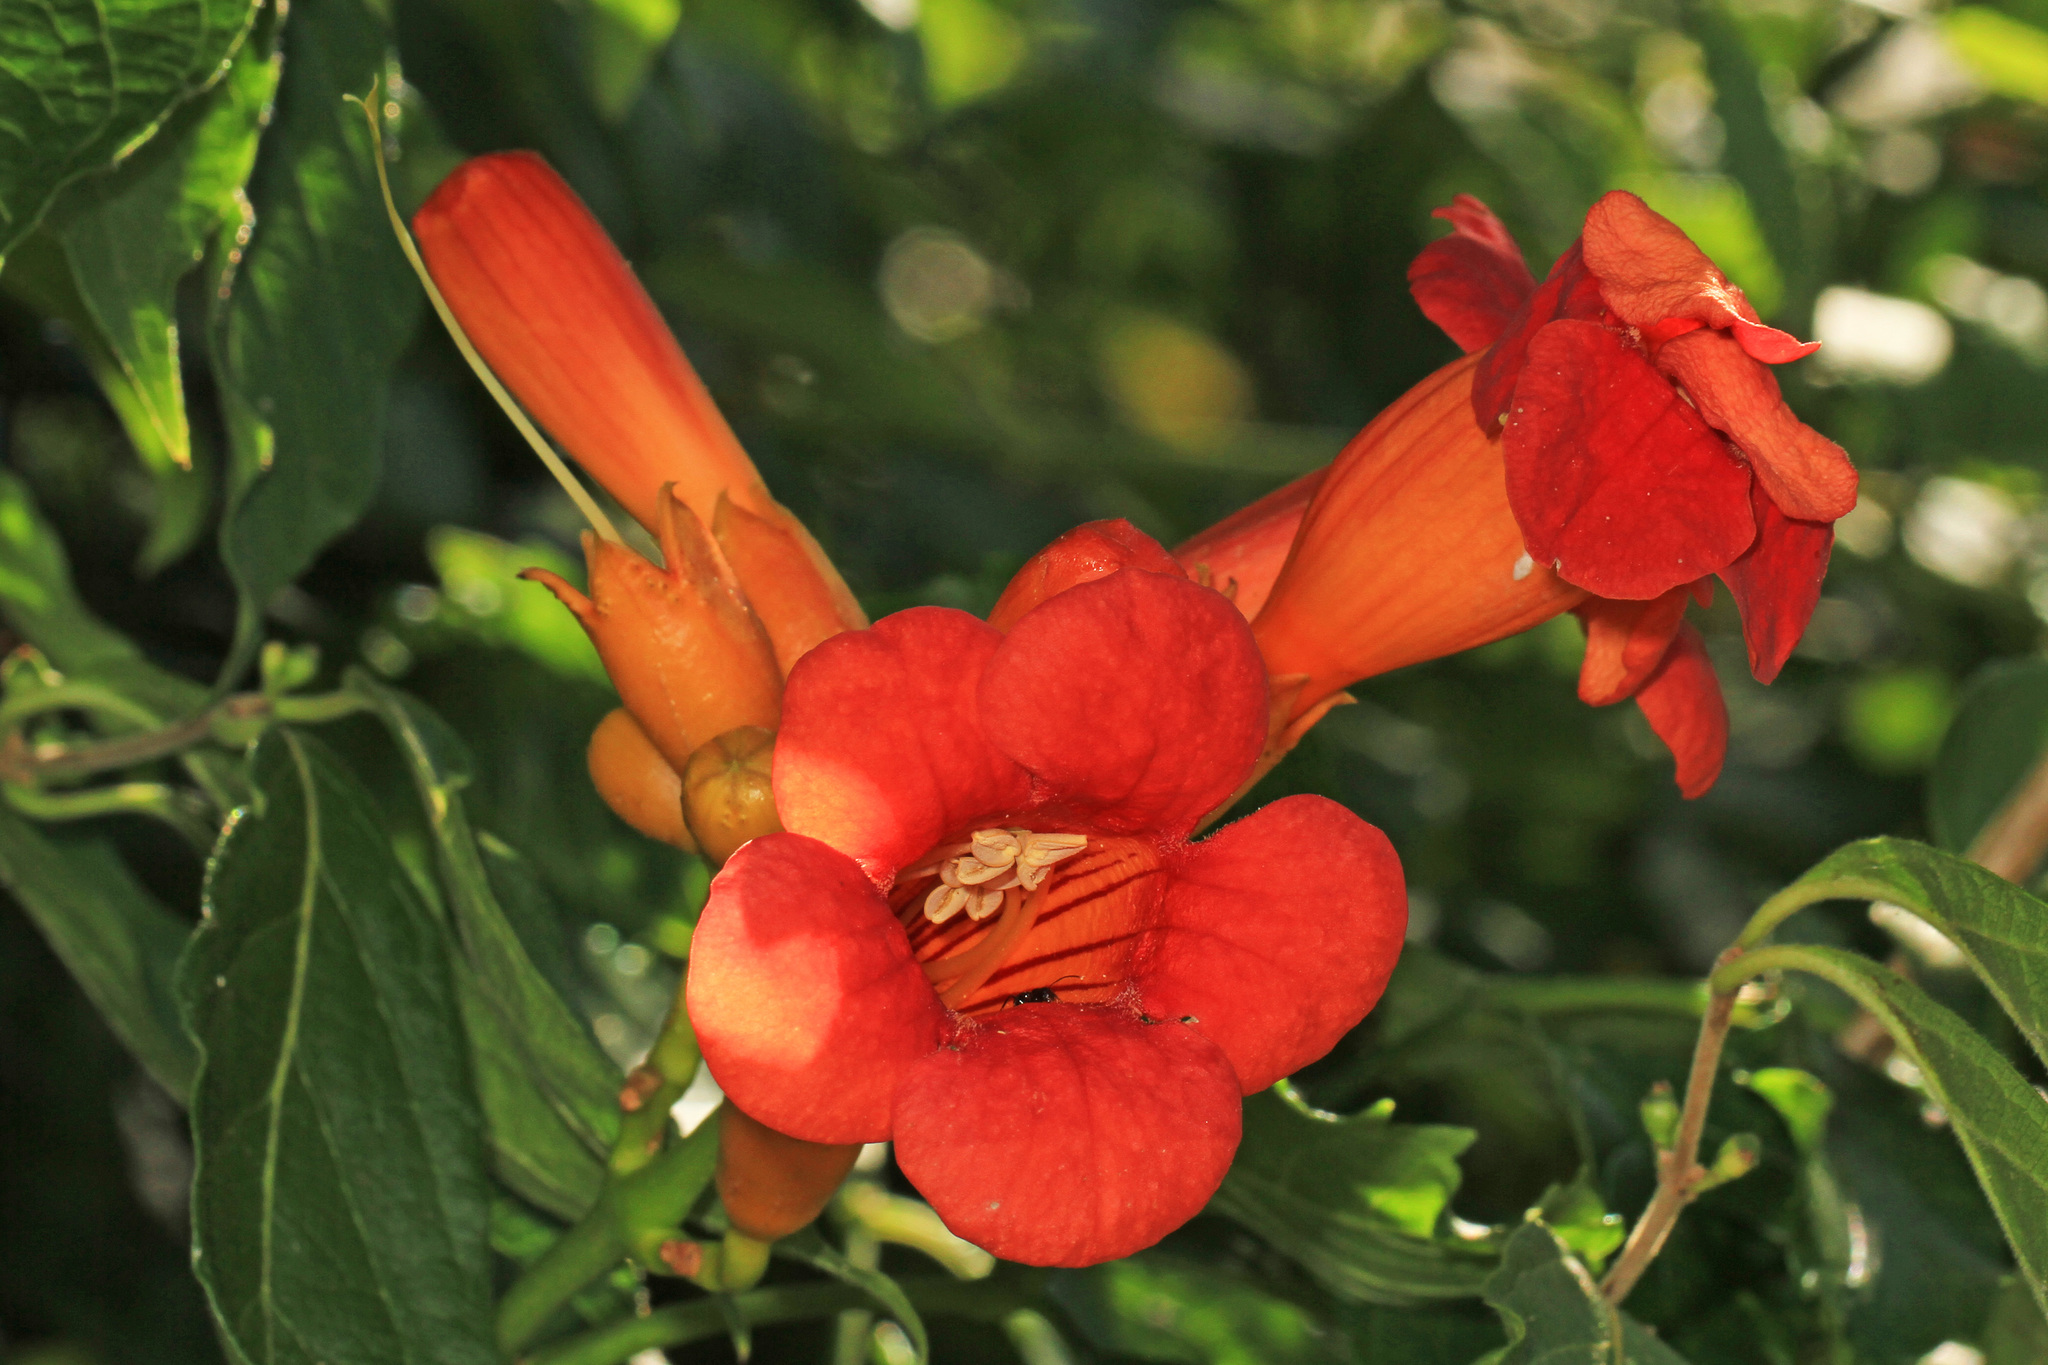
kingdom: Plantae
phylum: Tracheophyta
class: Magnoliopsida
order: Lamiales
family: Bignoniaceae
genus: Campsis
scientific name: Campsis radicans
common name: Trumpet-creeper
